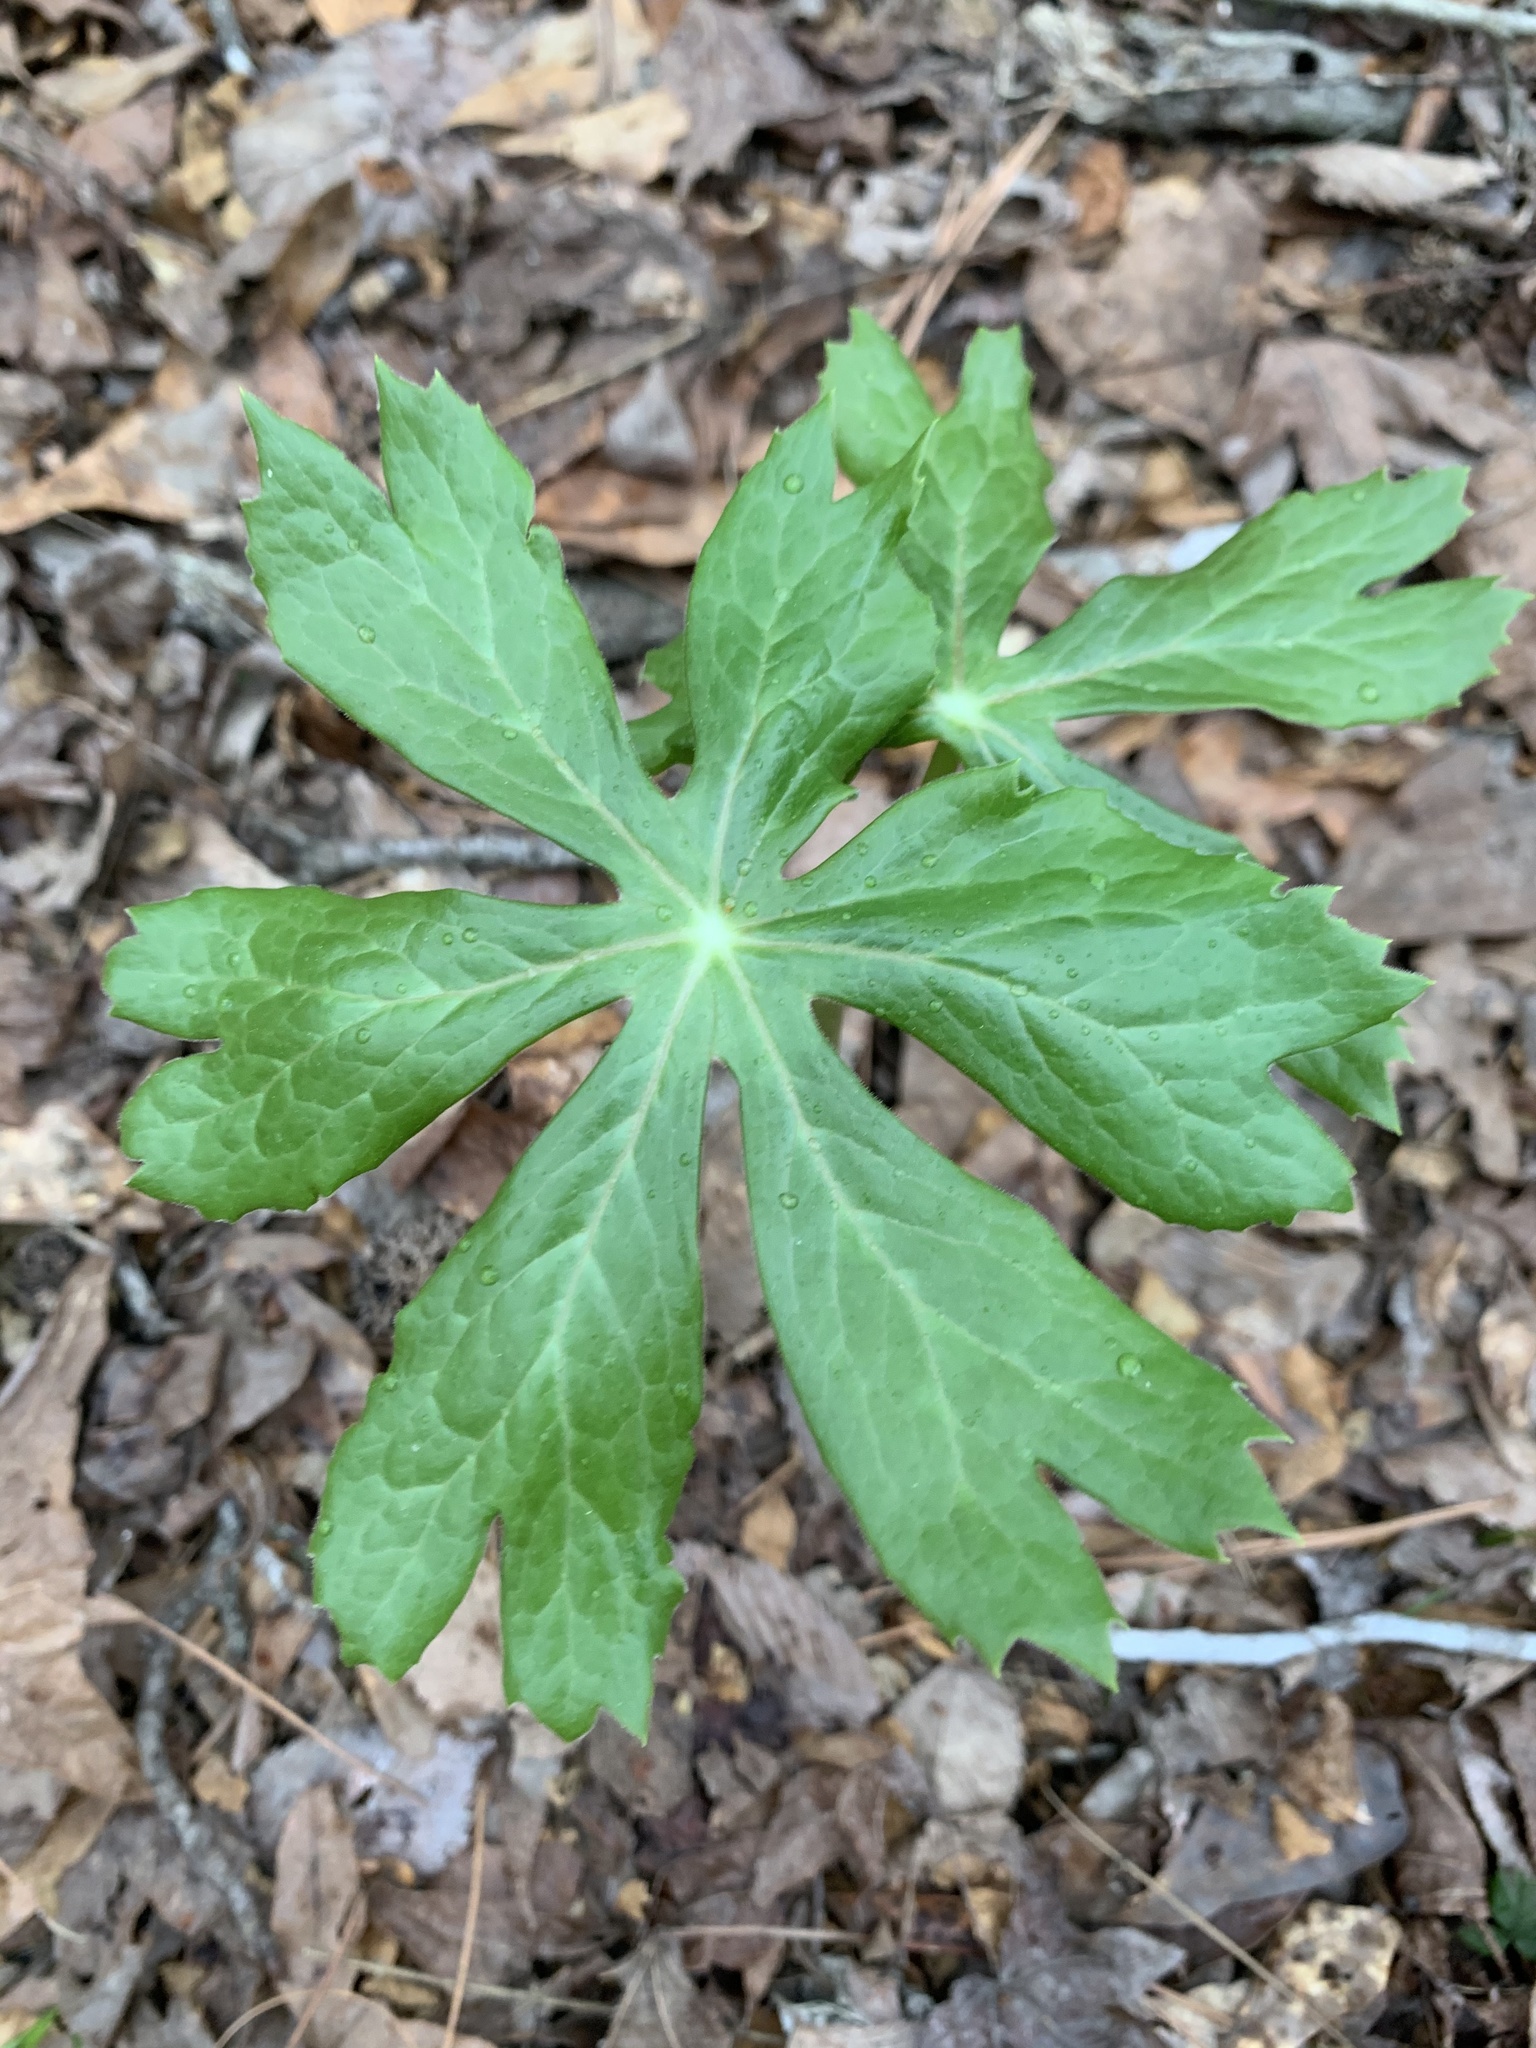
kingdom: Plantae
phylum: Tracheophyta
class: Magnoliopsida
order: Ranunculales
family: Berberidaceae
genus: Podophyllum
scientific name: Podophyllum peltatum
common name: Wild mandrake
